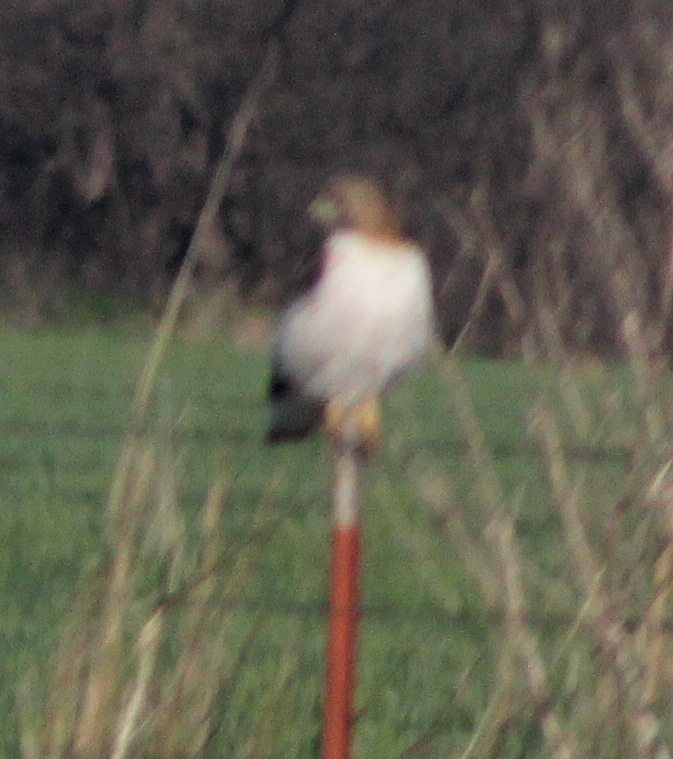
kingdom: Animalia
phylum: Chordata
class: Aves
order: Accipitriformes
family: Accipitridae
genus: Buteo
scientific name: Buteo jamaicensis
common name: Red-tailed hawk
